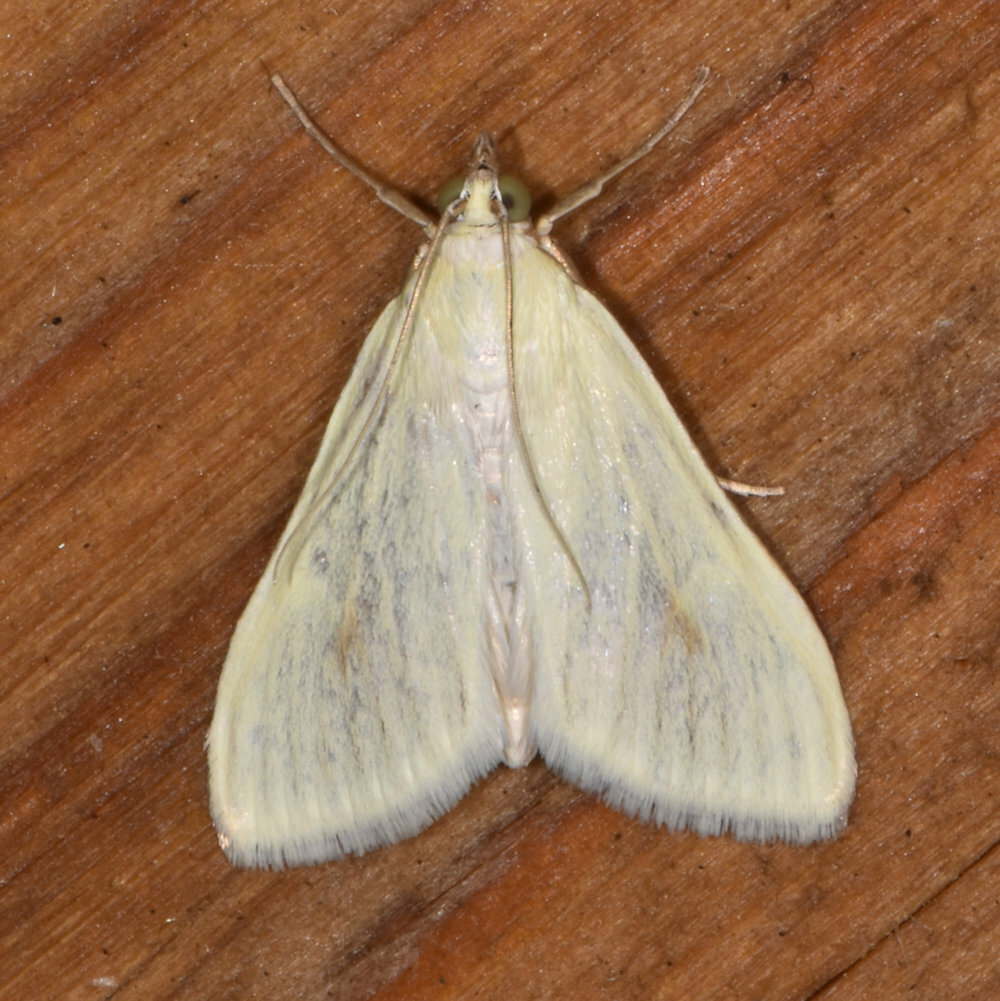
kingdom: Animalia
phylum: Arthropoda
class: Insecta
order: Lepidoptera
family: Crambidae
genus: Sitochroa
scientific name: Sitochroa palealis
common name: Greenish-yellow sitochroa moth
